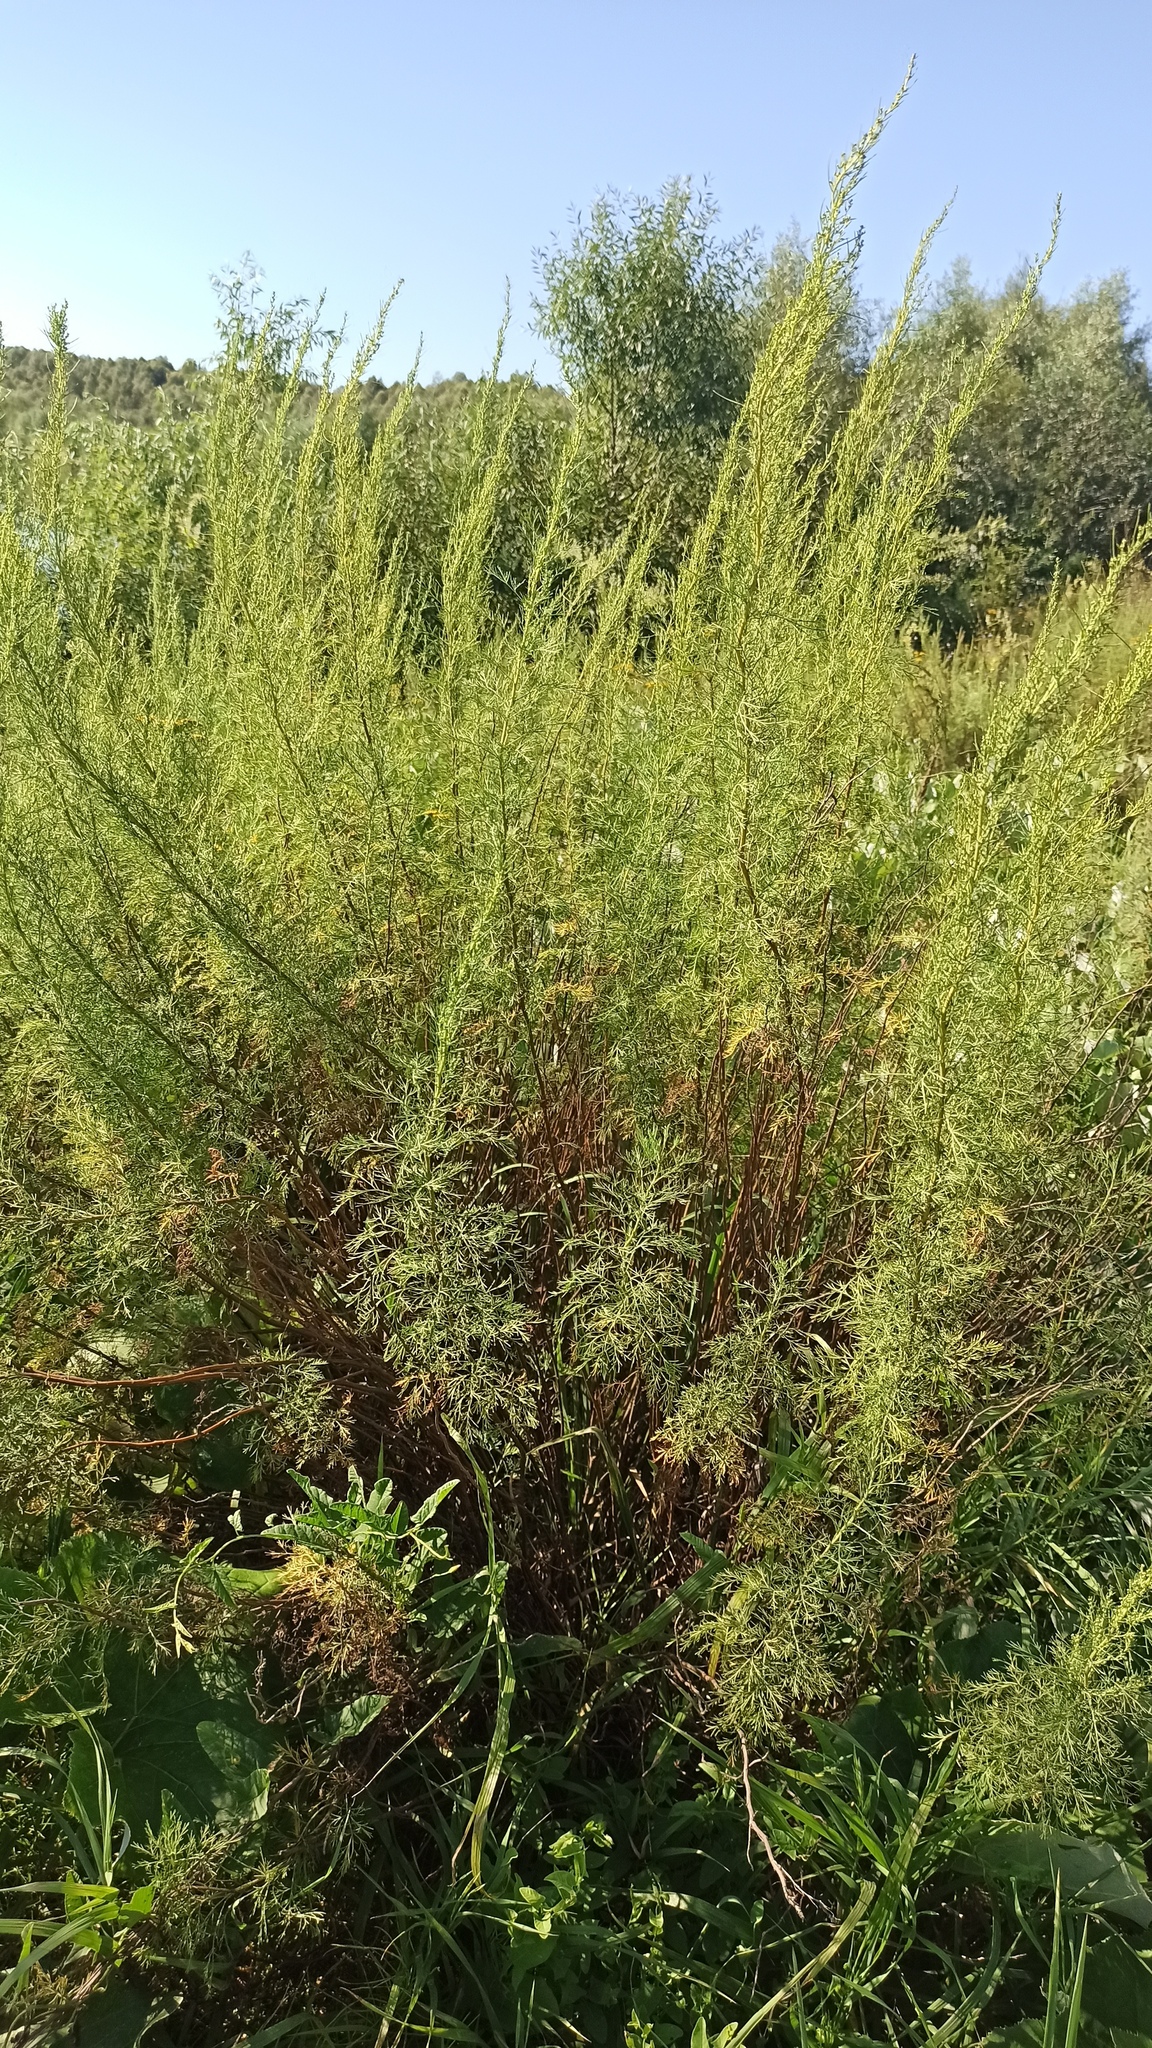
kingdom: Plantae
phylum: Tracheophyta
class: Magnoliopsida
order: Asterales
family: Asteraceae
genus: Artemisia
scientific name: Artemisia abrotanum
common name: Southernwood
